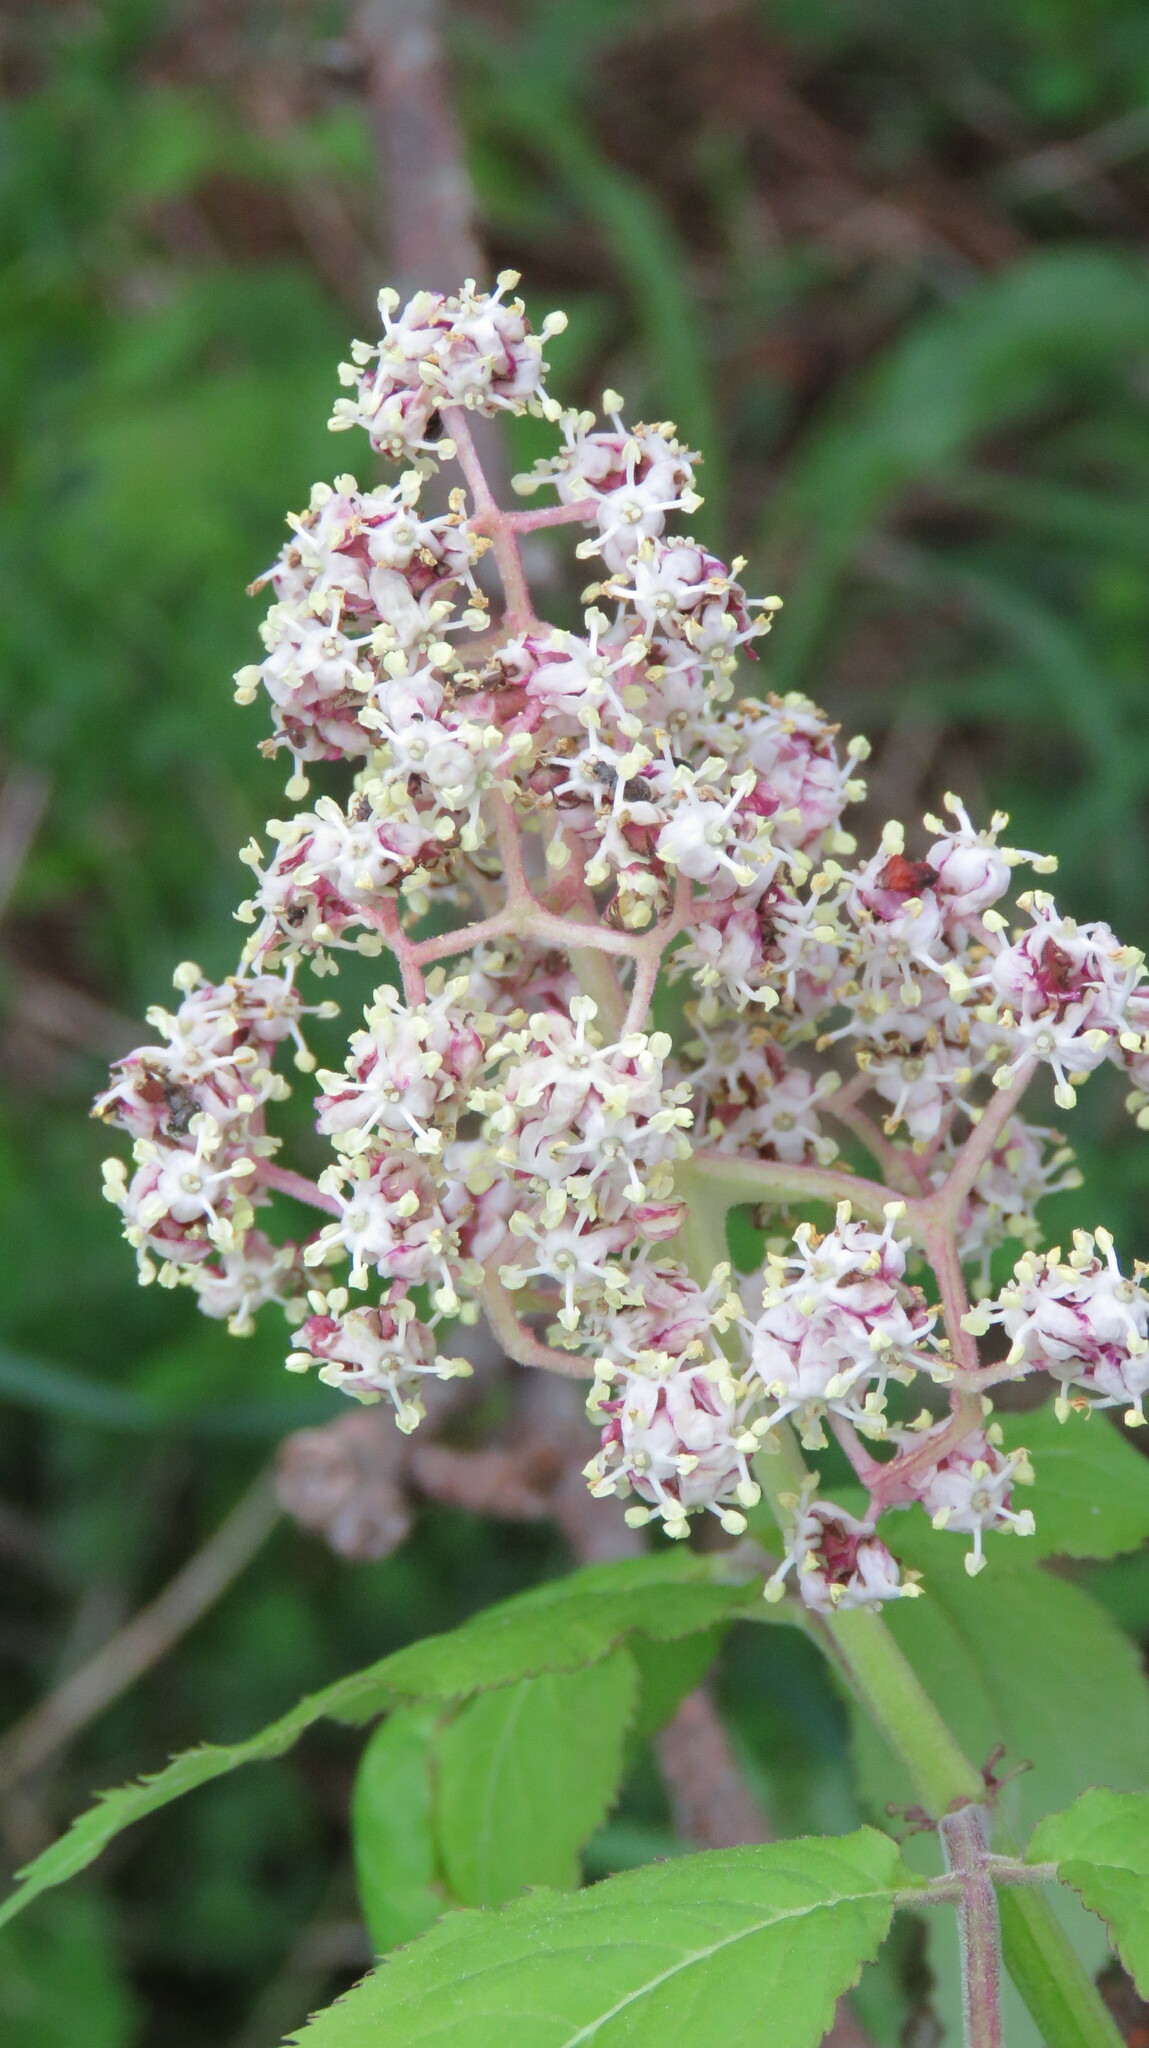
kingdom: Plantae
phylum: Tracheophyta
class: Magnoliopsida
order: Dipsacales
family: Viburnaceae
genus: Sambucus
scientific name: Sambucus racemosa
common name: Red-berried elder
